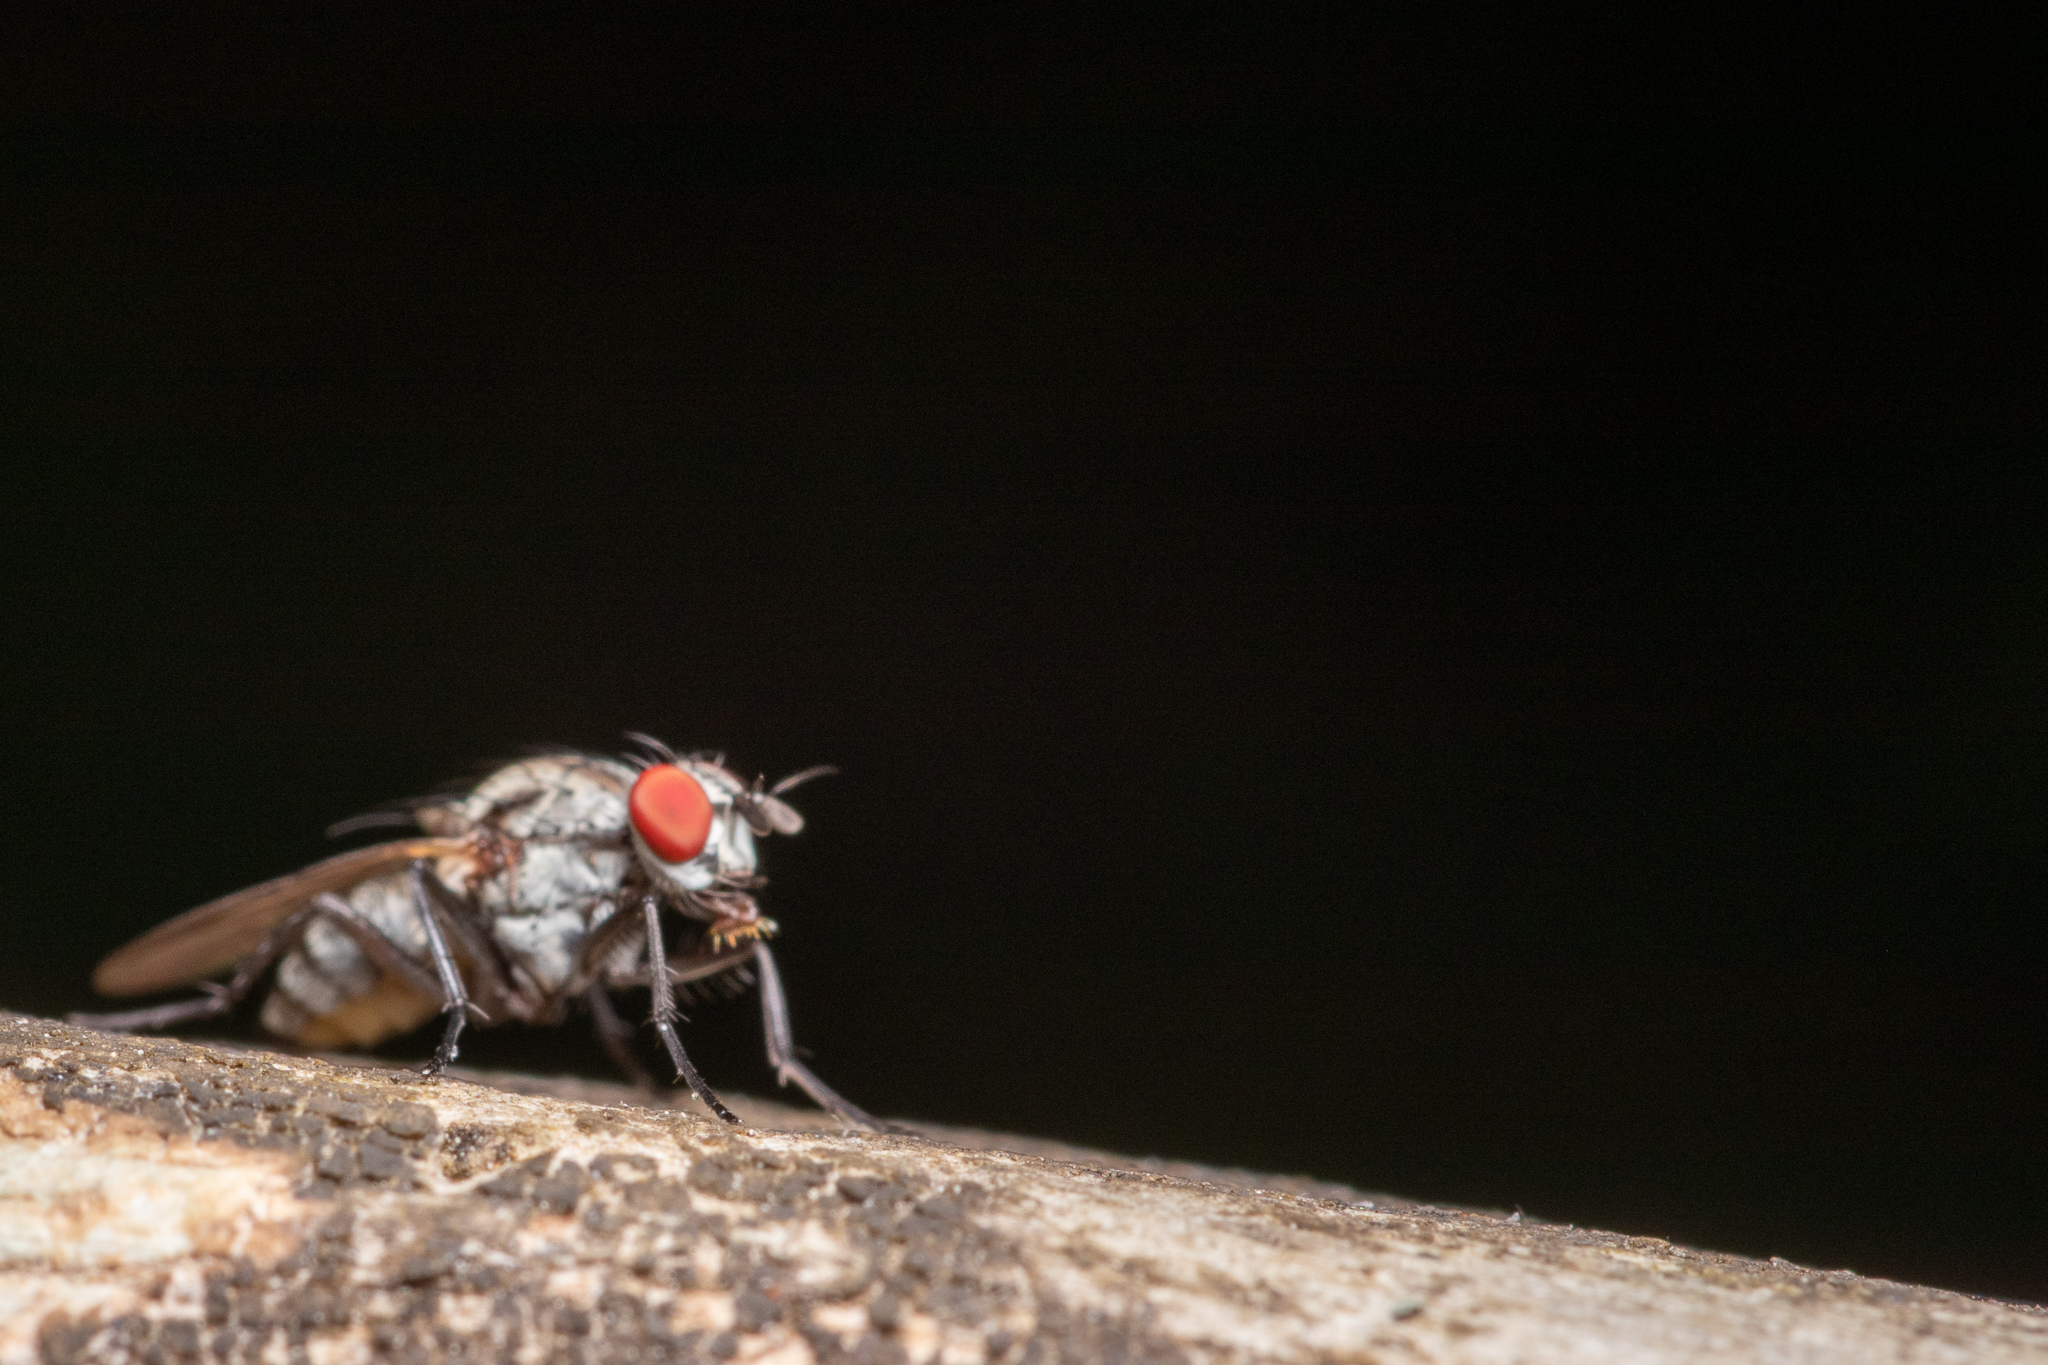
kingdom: Animalia
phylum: Arthropoda
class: Insecta
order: Diptera
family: Anthomyiidae
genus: Anthomyia
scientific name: Anthomyia oculifera
